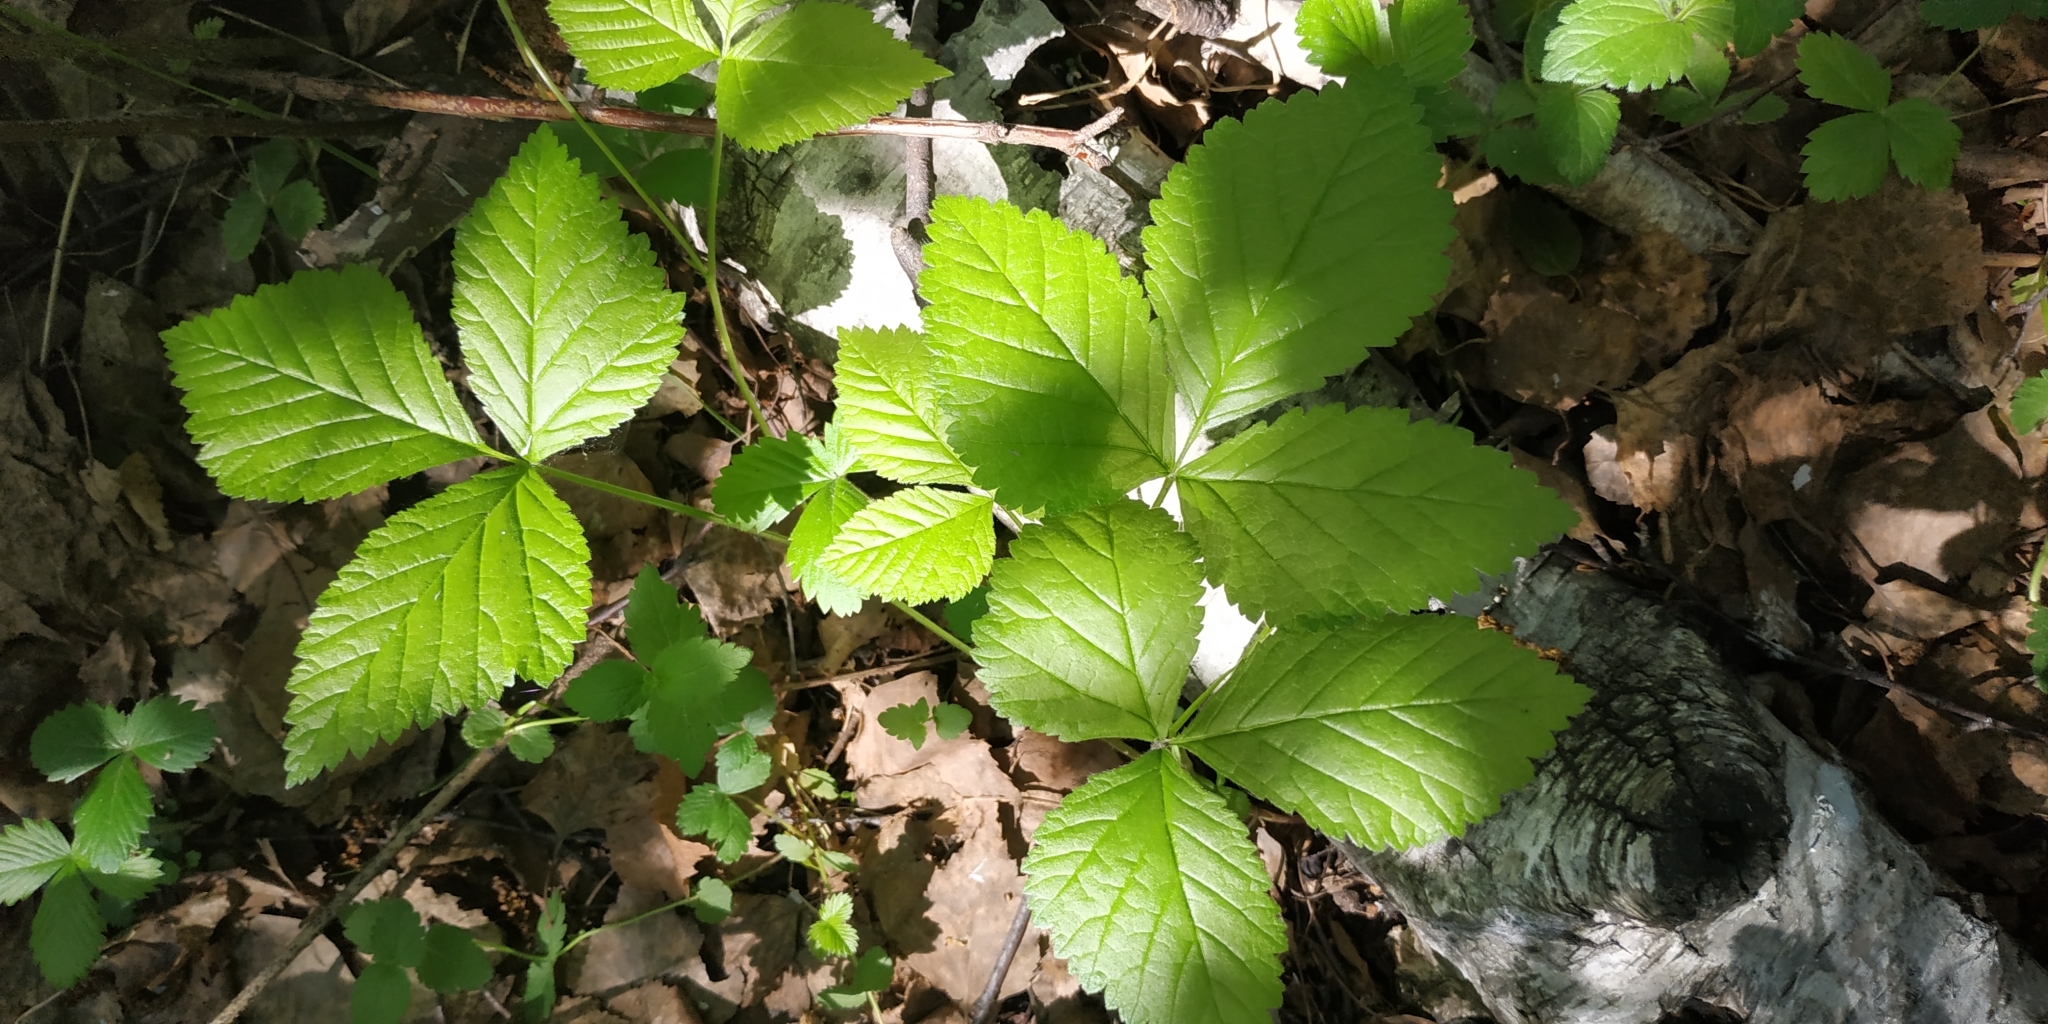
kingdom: Plantae
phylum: Tracheophyta
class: Magnoliopsida
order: Rosales
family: Rosaceae
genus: Rubus
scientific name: Rubus saxatilis
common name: Stone bramble
